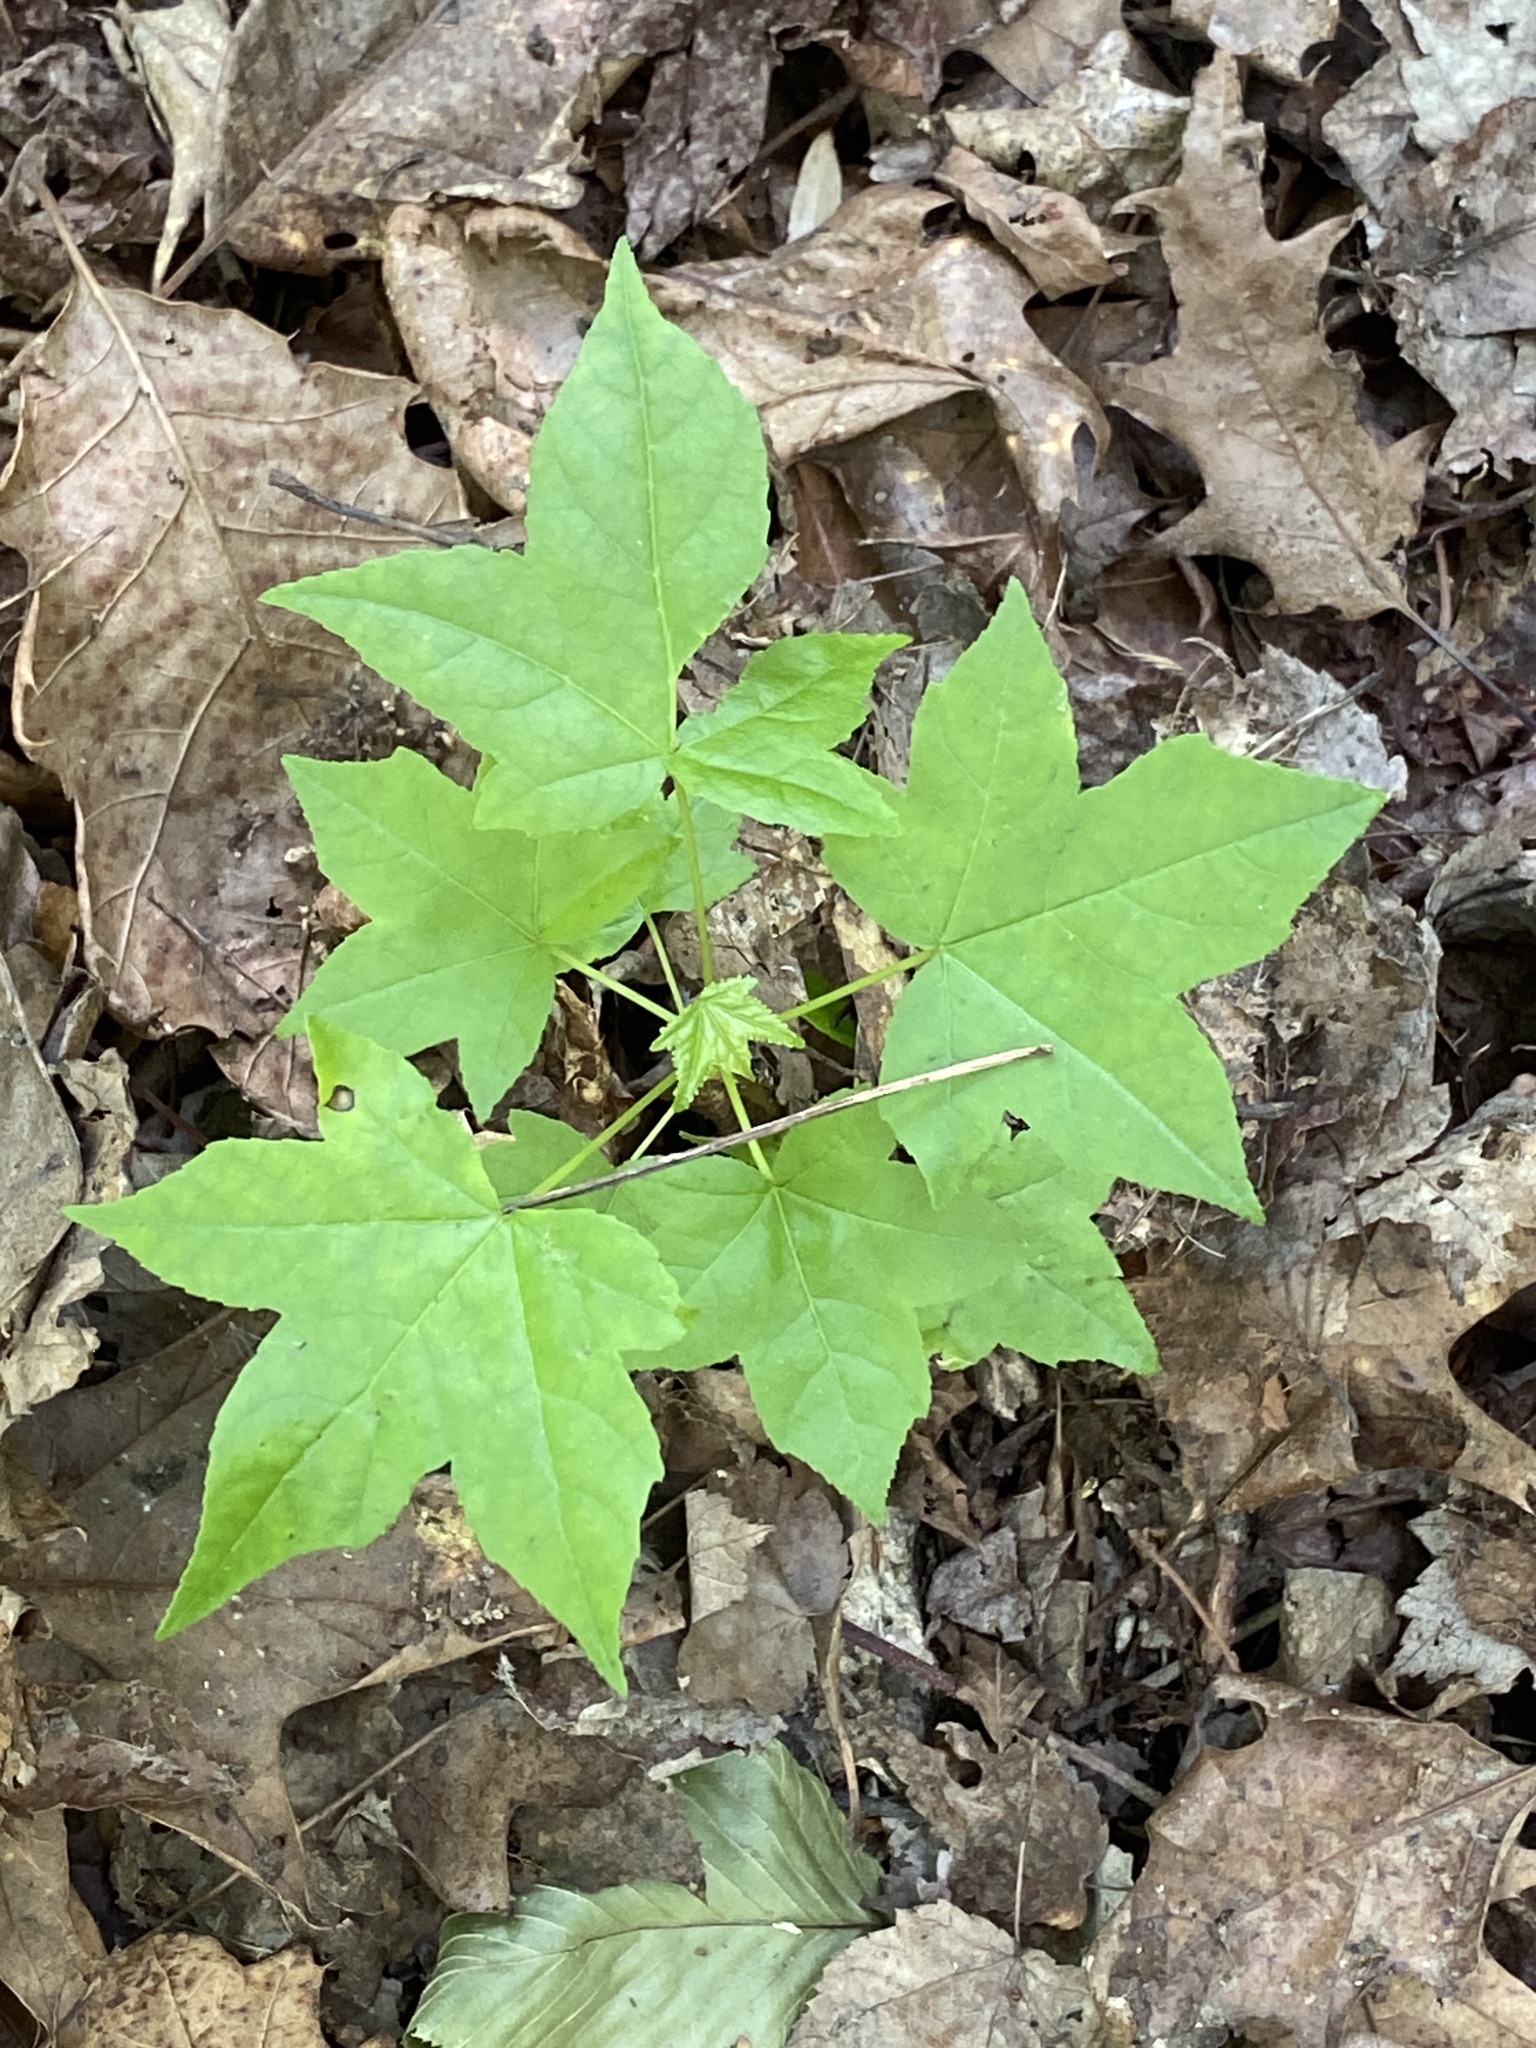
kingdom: Plantae
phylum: Tracheophyta
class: Magnoliopsida
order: Saxifragales
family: Altingiaceae
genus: Liquidambar
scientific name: Liquidambar styraciflua
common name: Sweet gum
